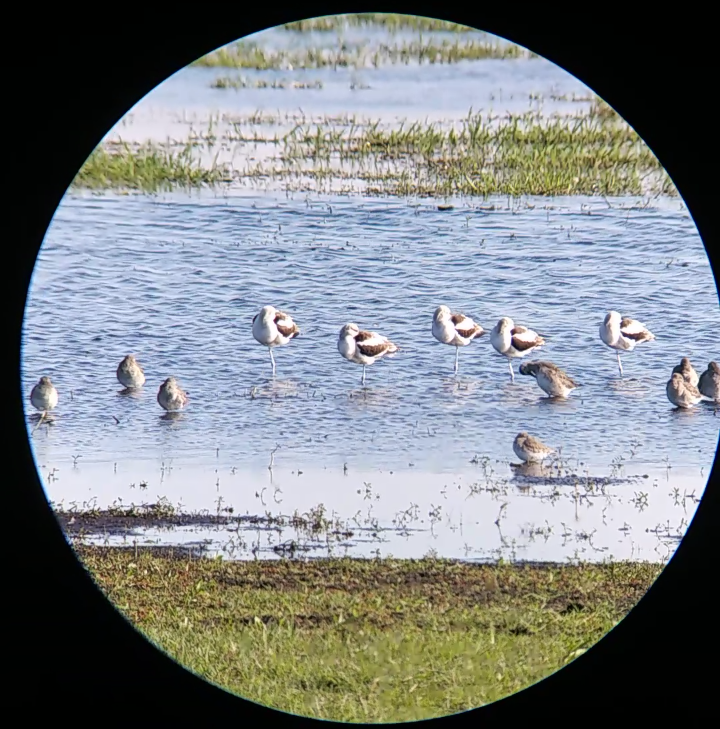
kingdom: Animalia
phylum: Chordata
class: Aves
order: Charadriiformes
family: Scolopacidae
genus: Limnodromus
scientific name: Limnodromus scolopaceus
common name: Long-billed dowitcher
